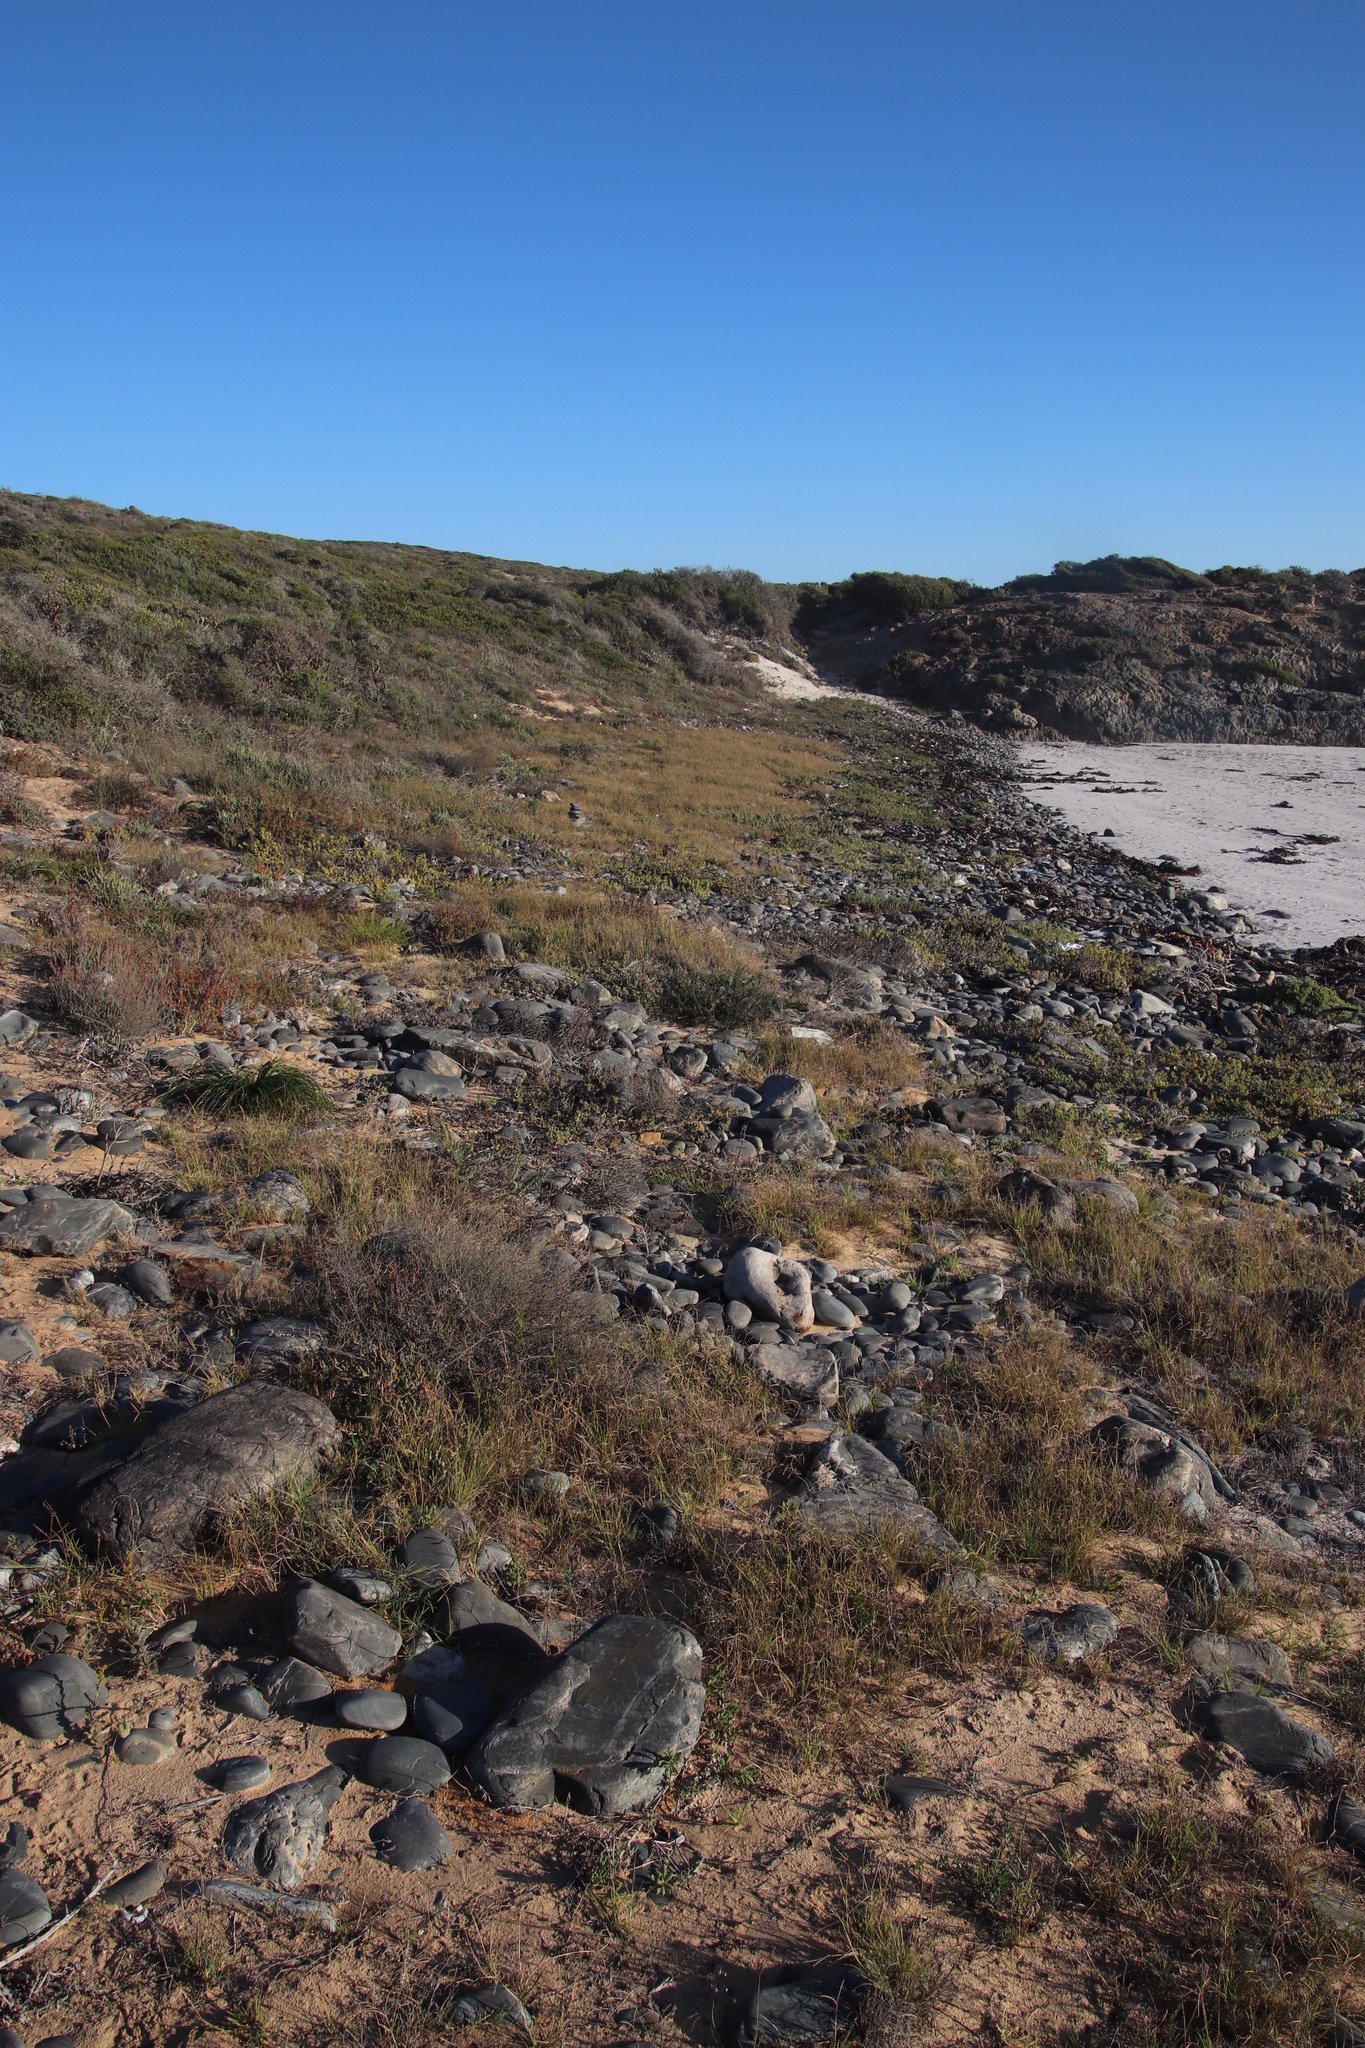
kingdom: Plantae
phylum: Tracheophyta
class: Liliopsida
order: Poales
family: Poaceae
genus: Cynodon
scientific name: Cynodon dactylon
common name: Bermuda grass
